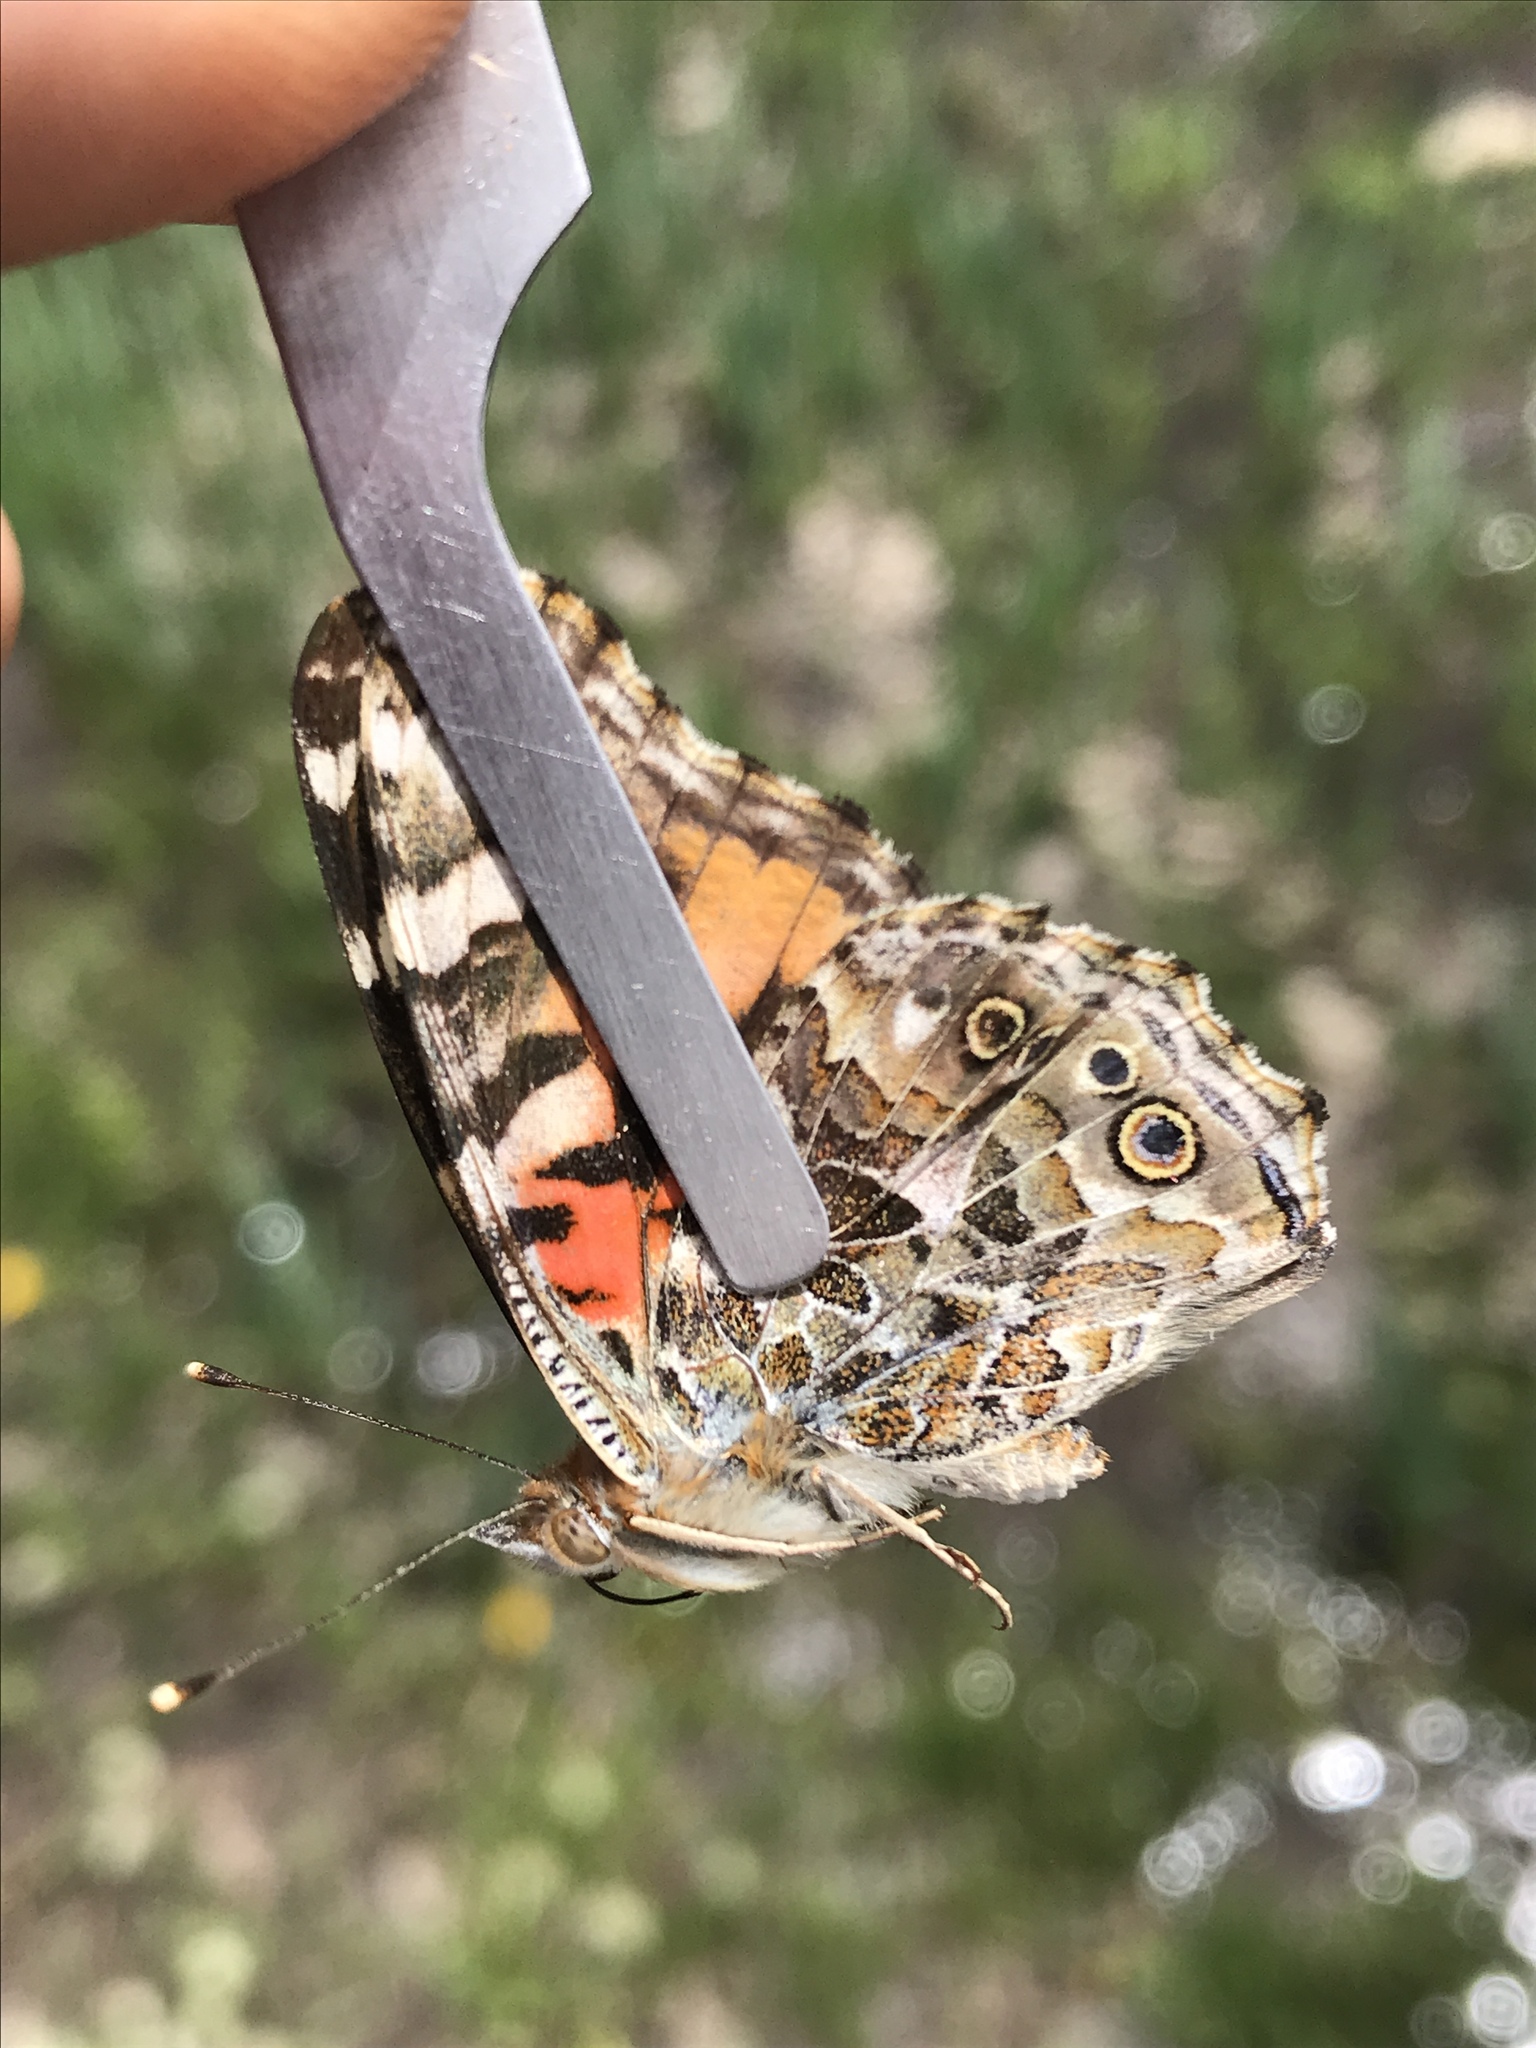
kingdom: Animalia
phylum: Arthropoda
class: Insecta
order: Lepidoptera
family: Nymphalidae
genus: Vanessa
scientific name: Vanessa cardui
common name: Painted lady
